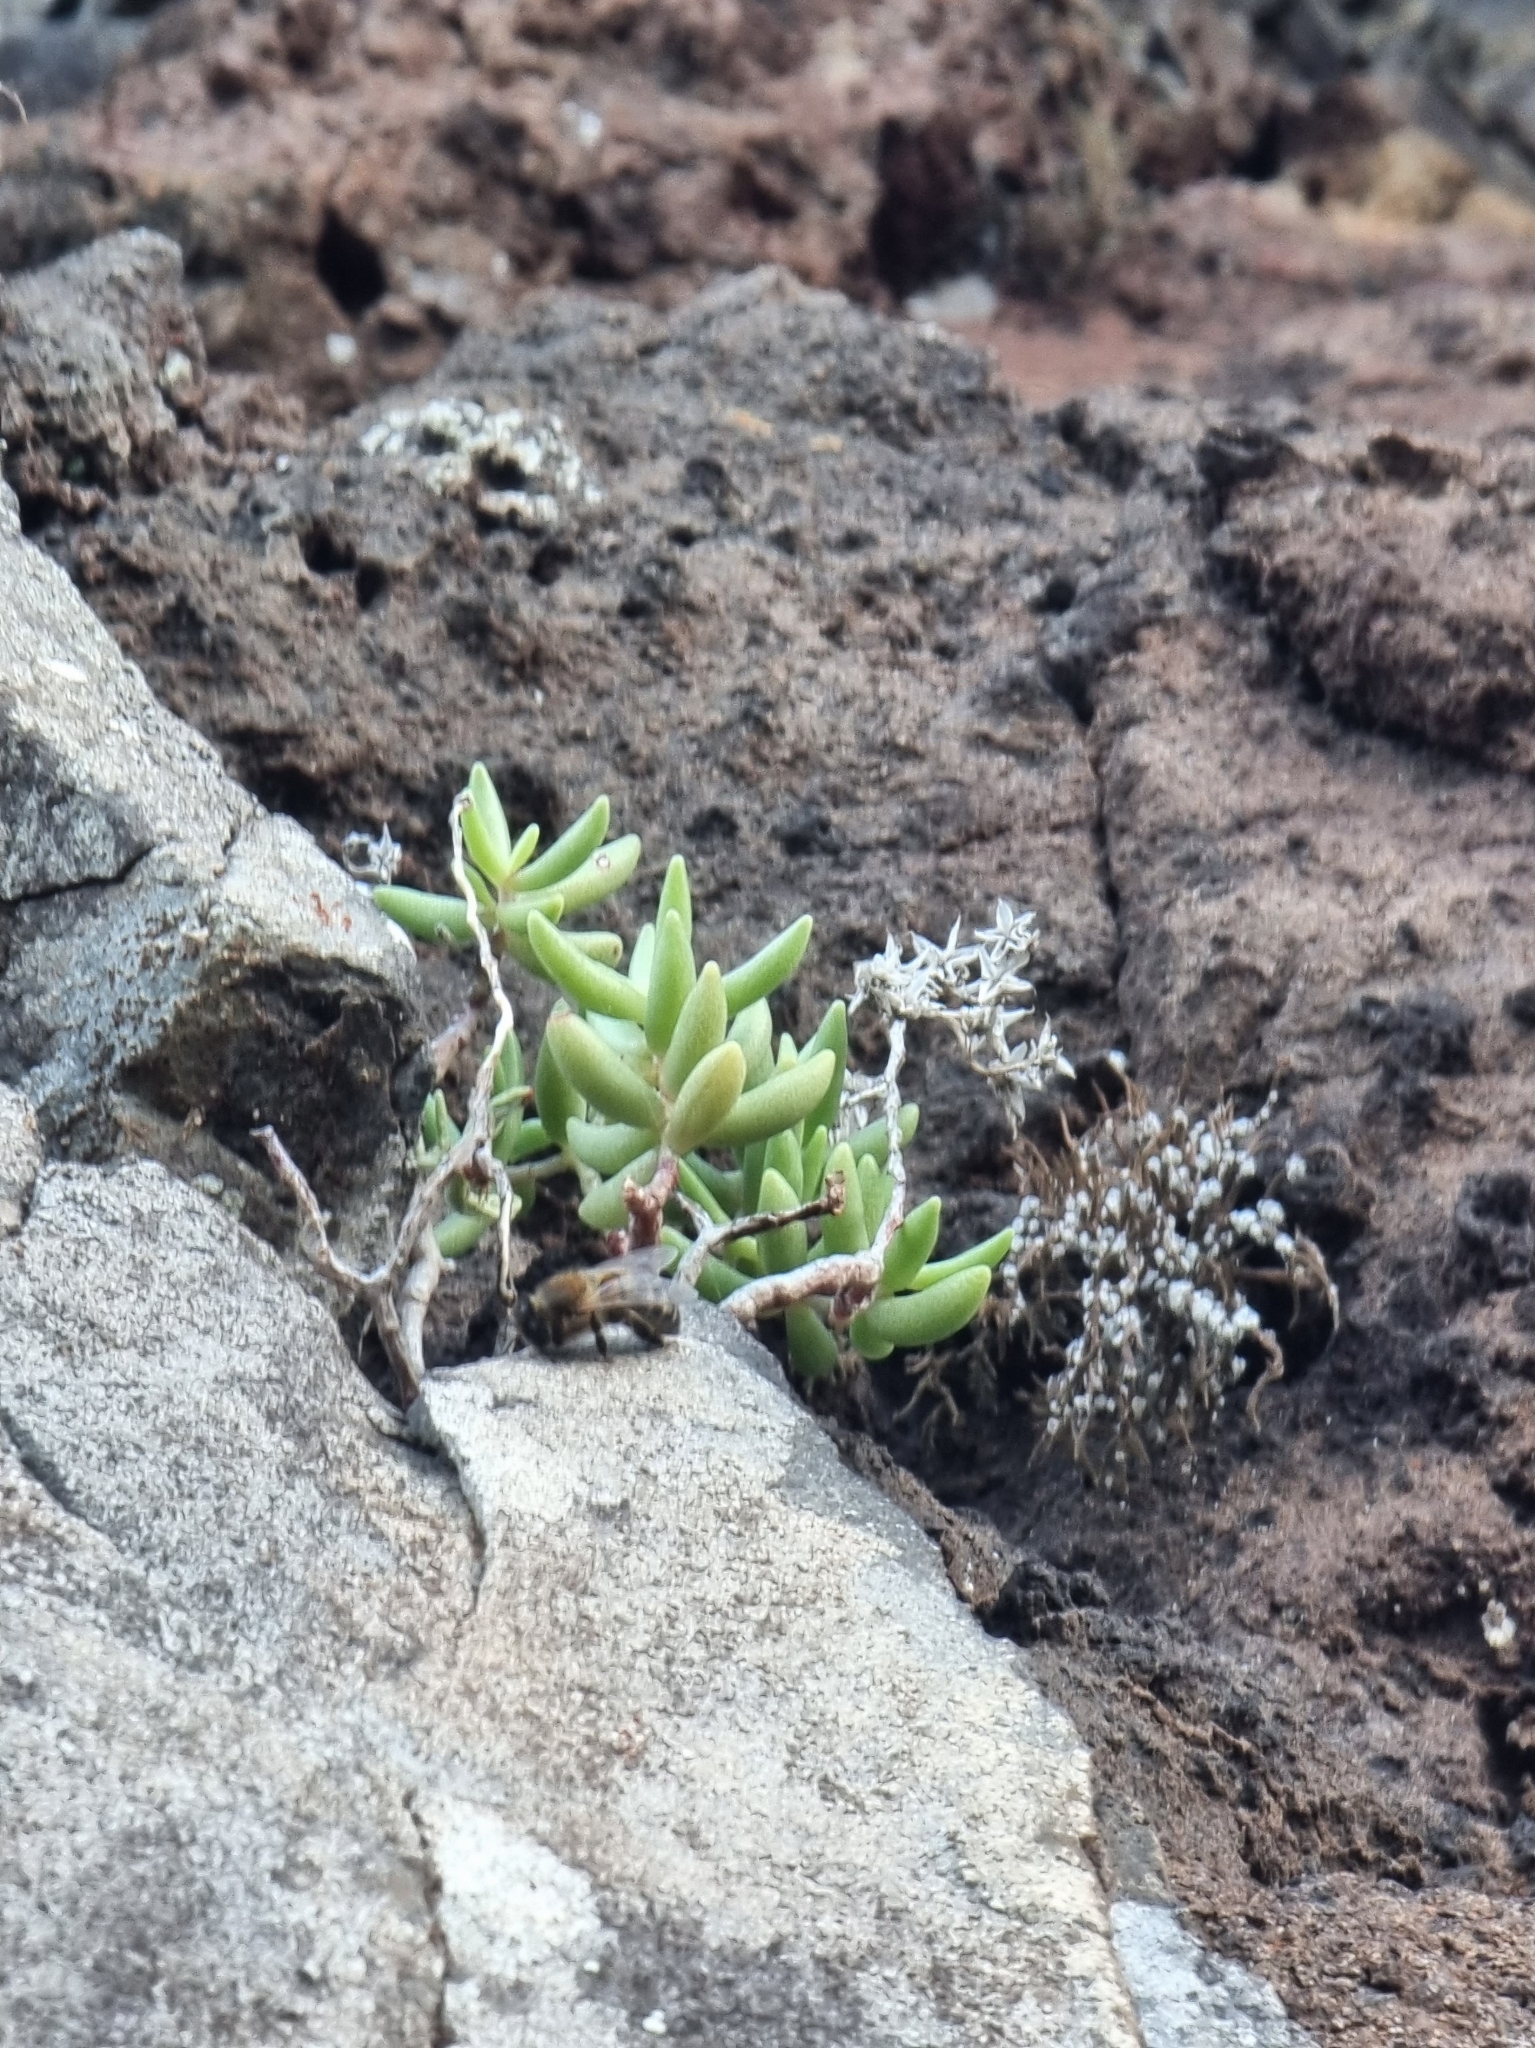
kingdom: Plantae
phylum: Tracheophyta
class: Magnoliopsida
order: Saxifragales
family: Crassulaceae
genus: Sedum
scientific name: Sedum fusiforme
